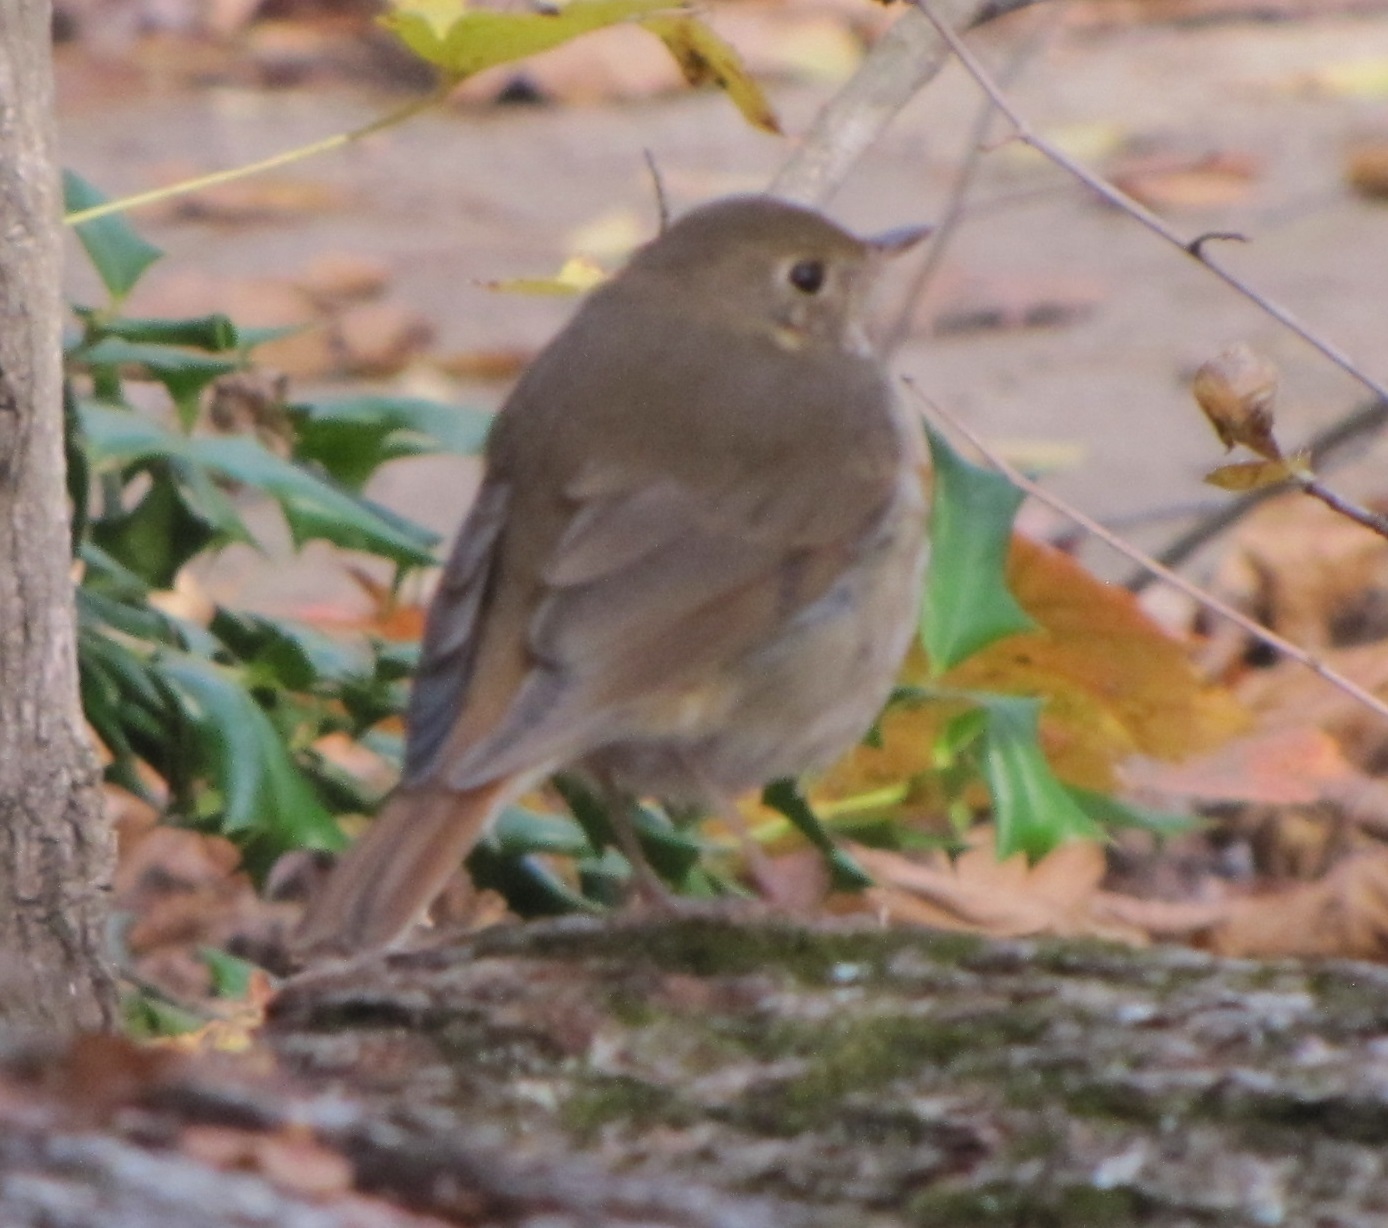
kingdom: Animalia
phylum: Chordata
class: Aves
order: Passeriformes
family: Turdidae
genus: Catharus
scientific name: Catharus guttatus
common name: Hermit thrush
